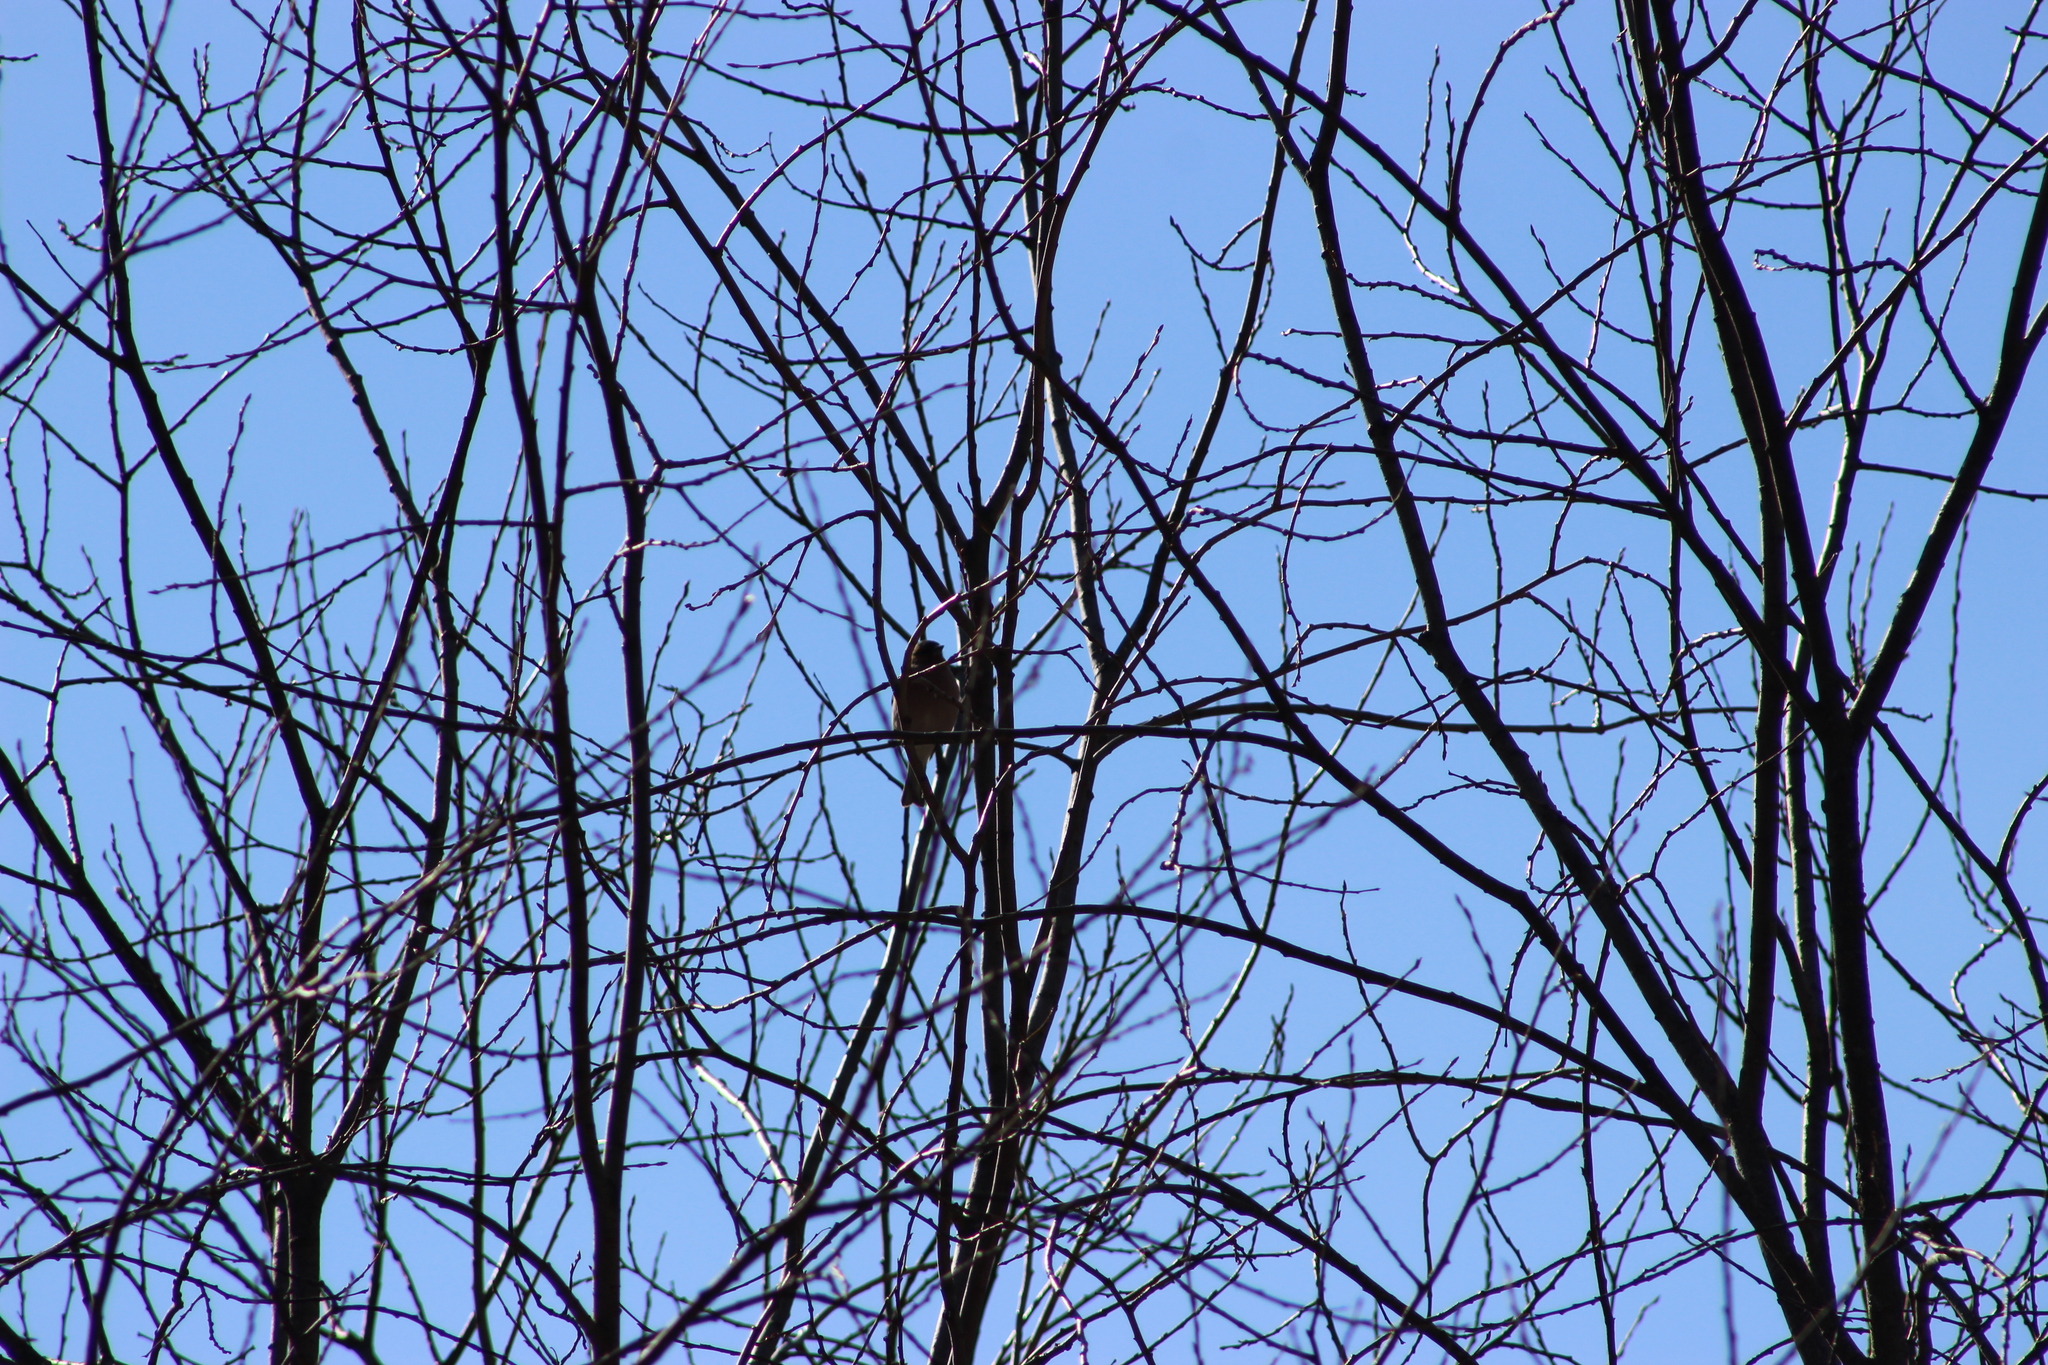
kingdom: Animalia
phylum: Chordata
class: Aves
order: Passeriformes
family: Fringillidae
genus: Fringilla
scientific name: Fringilla coelebs
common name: Common chaffinch
